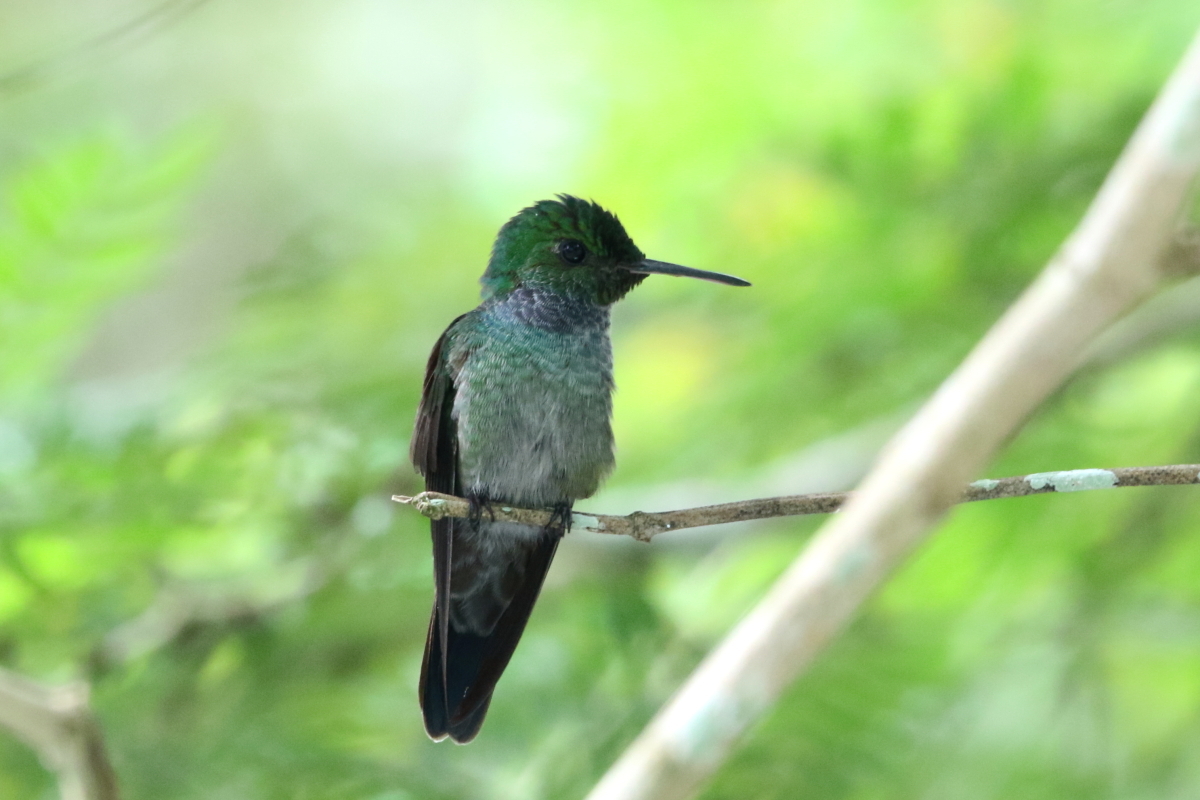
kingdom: Animalia
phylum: Chordata
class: Aves
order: Apodiformes
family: Trochilidae
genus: Polyerata
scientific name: Polyerata amabilis
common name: Blue-chested hummingbird
